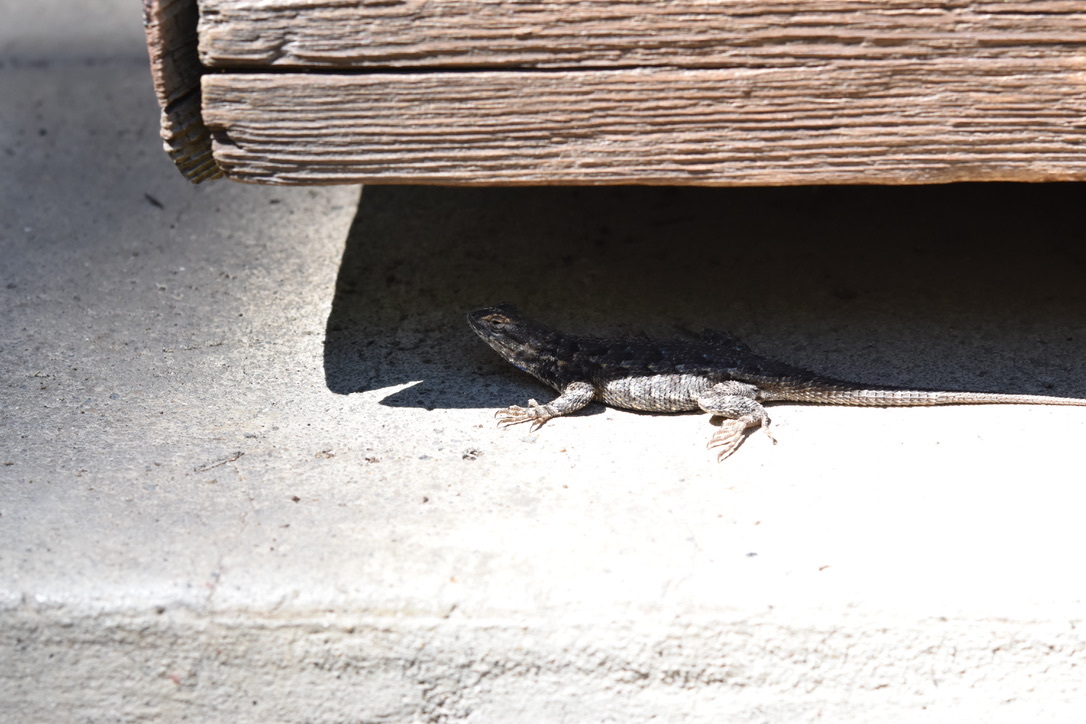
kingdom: Animalia
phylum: Chordata
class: Squamata
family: Phrynosomatidae
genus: Sceloporus
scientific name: Sceloporus occidentalis
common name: Western fence lizard
